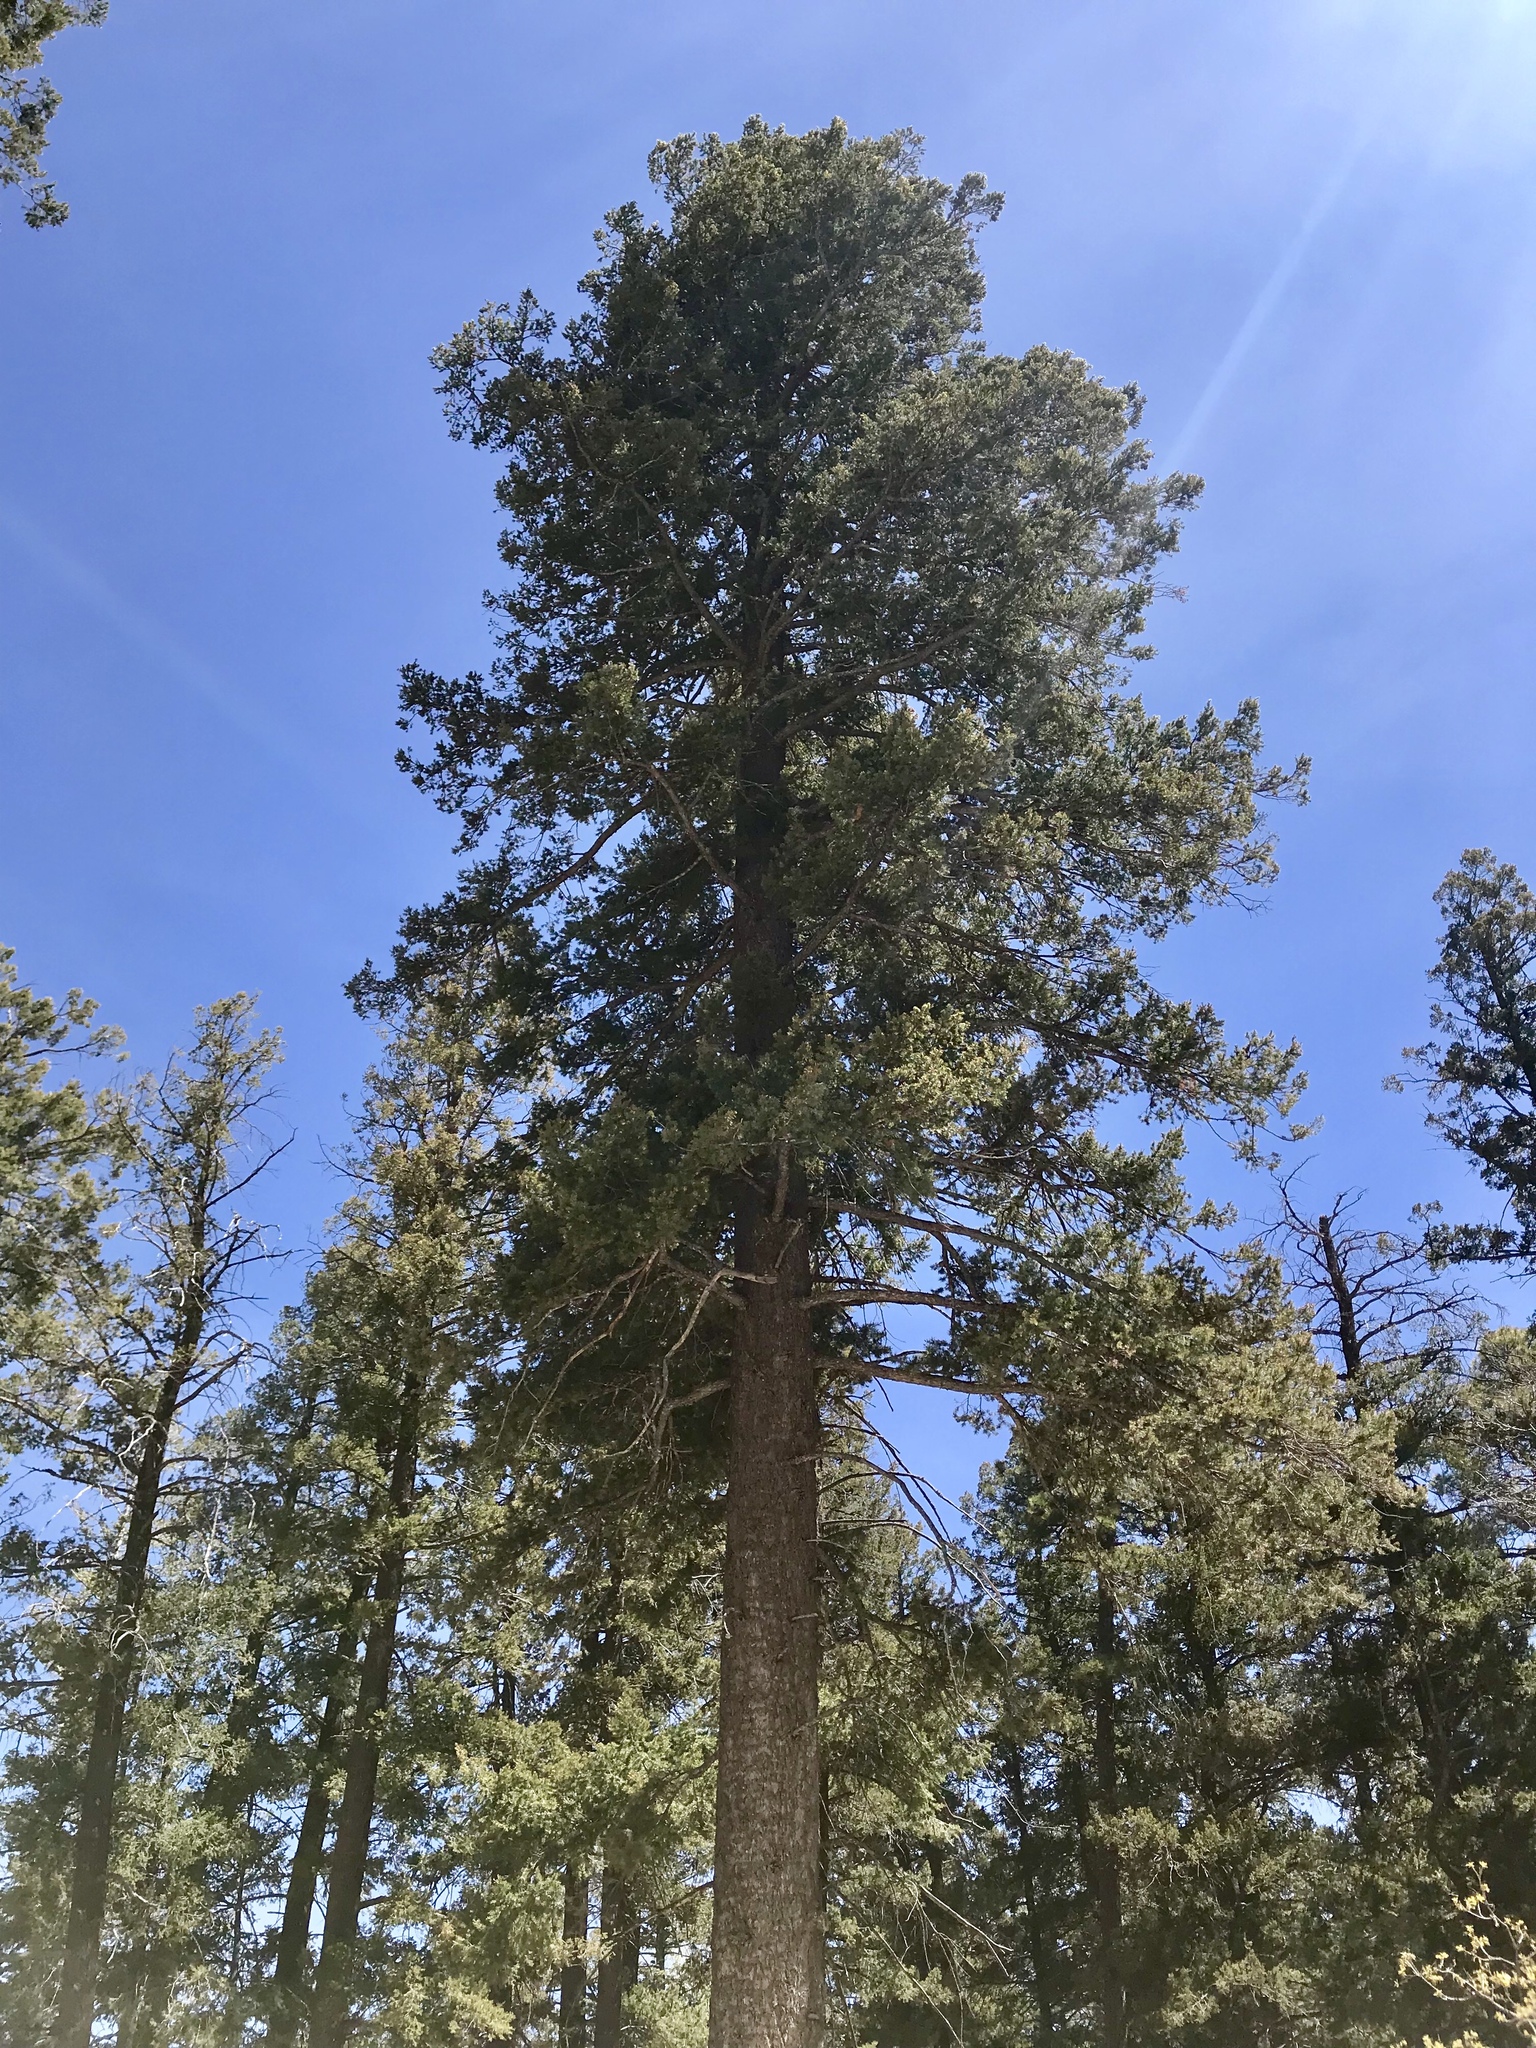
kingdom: Plantae
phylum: Tracheophyta
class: Pinopsida
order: Pinales
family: Pinaceae
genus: Pseudotsuga
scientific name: Pseudotsuga menziesii
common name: Douglas fir
